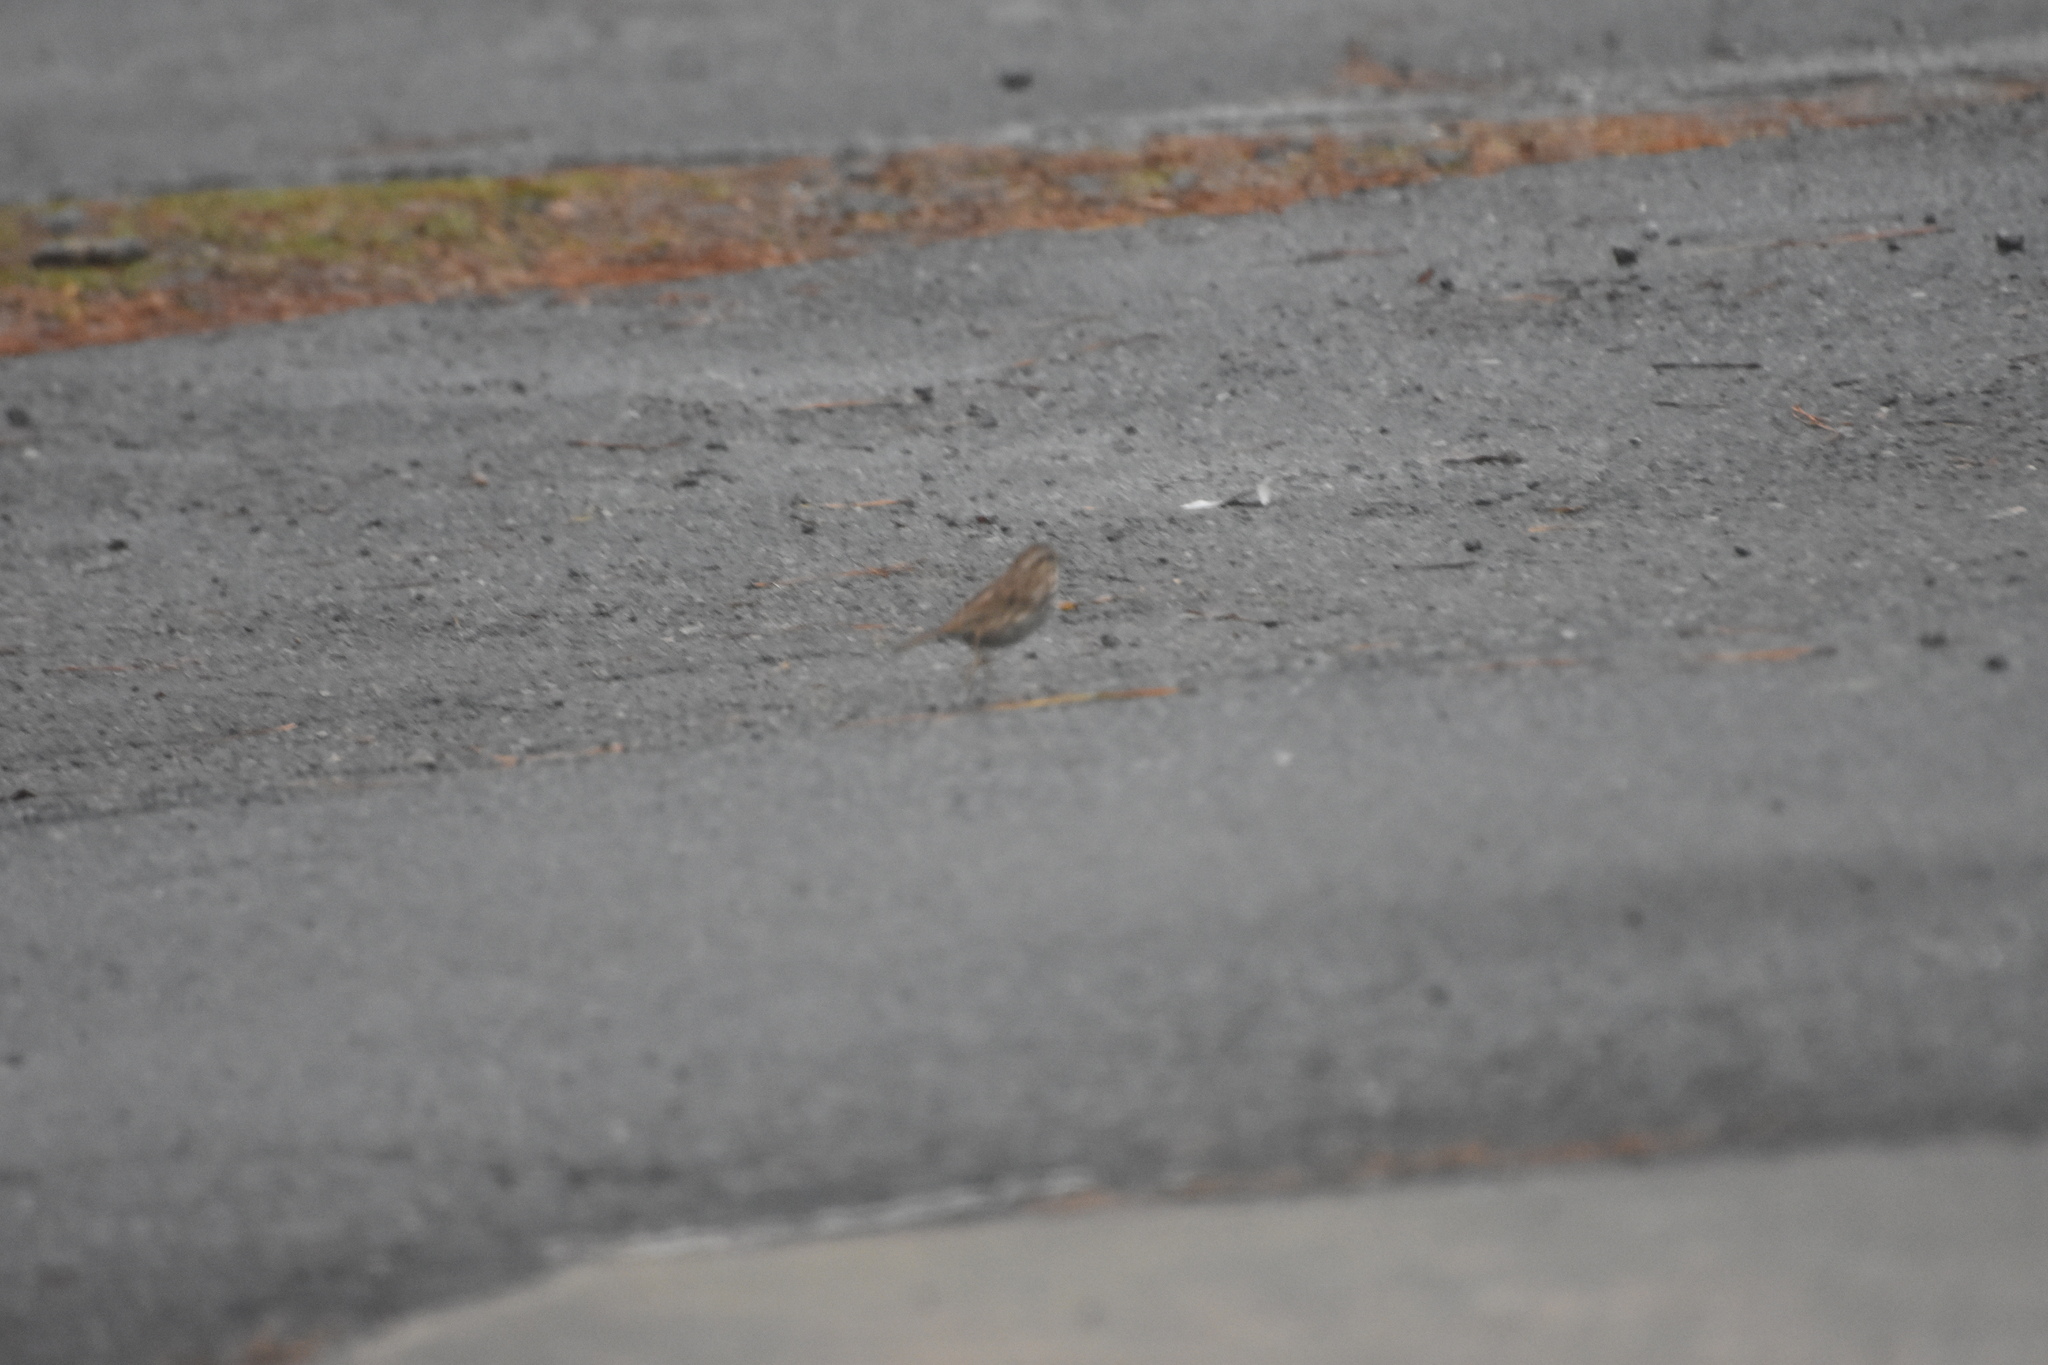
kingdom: Animalia
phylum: Chordata
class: Aves
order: Passeriformes
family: Passerellidae
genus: Melospiza
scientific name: Melospiza melodia
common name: Song sparrow
